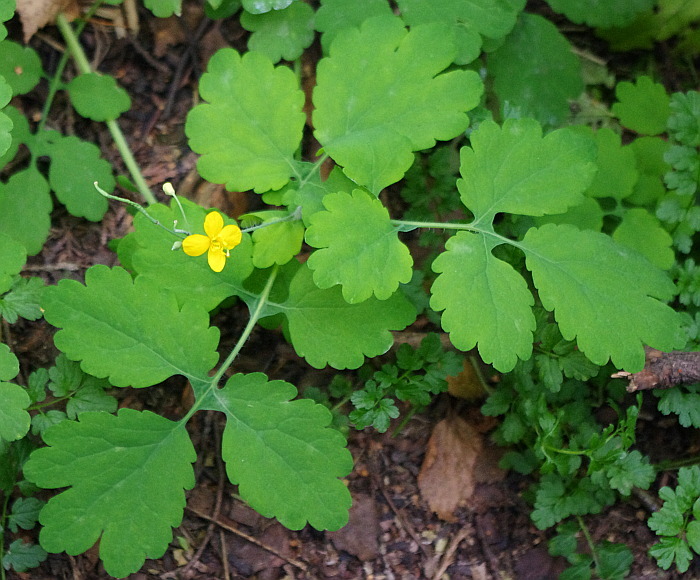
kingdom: Plantae
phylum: Tracheophyta
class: Magnoliopsida
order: Ranunculales
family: Papaveraceae
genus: Chelidonium
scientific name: Chelidonium majus
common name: Greater celandine
